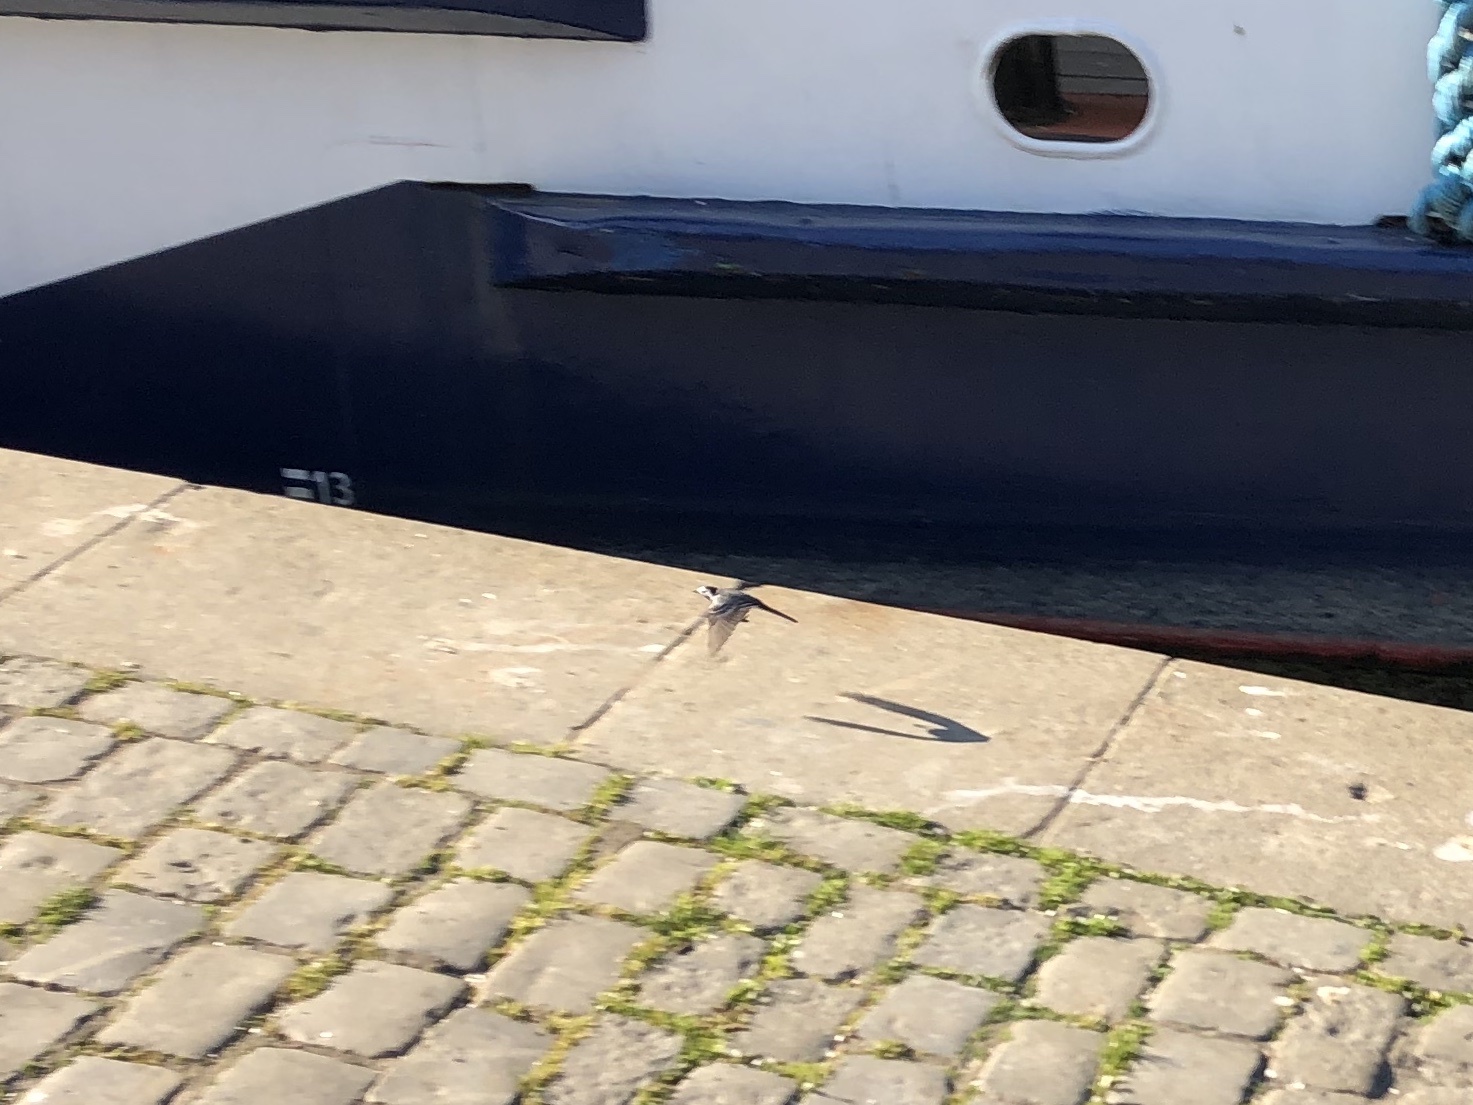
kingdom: Animalia
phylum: Chordata
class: Aves
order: Passeriformes
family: Motacillidae
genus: Motacilla
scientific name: Motacilla alba
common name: White wagtail
